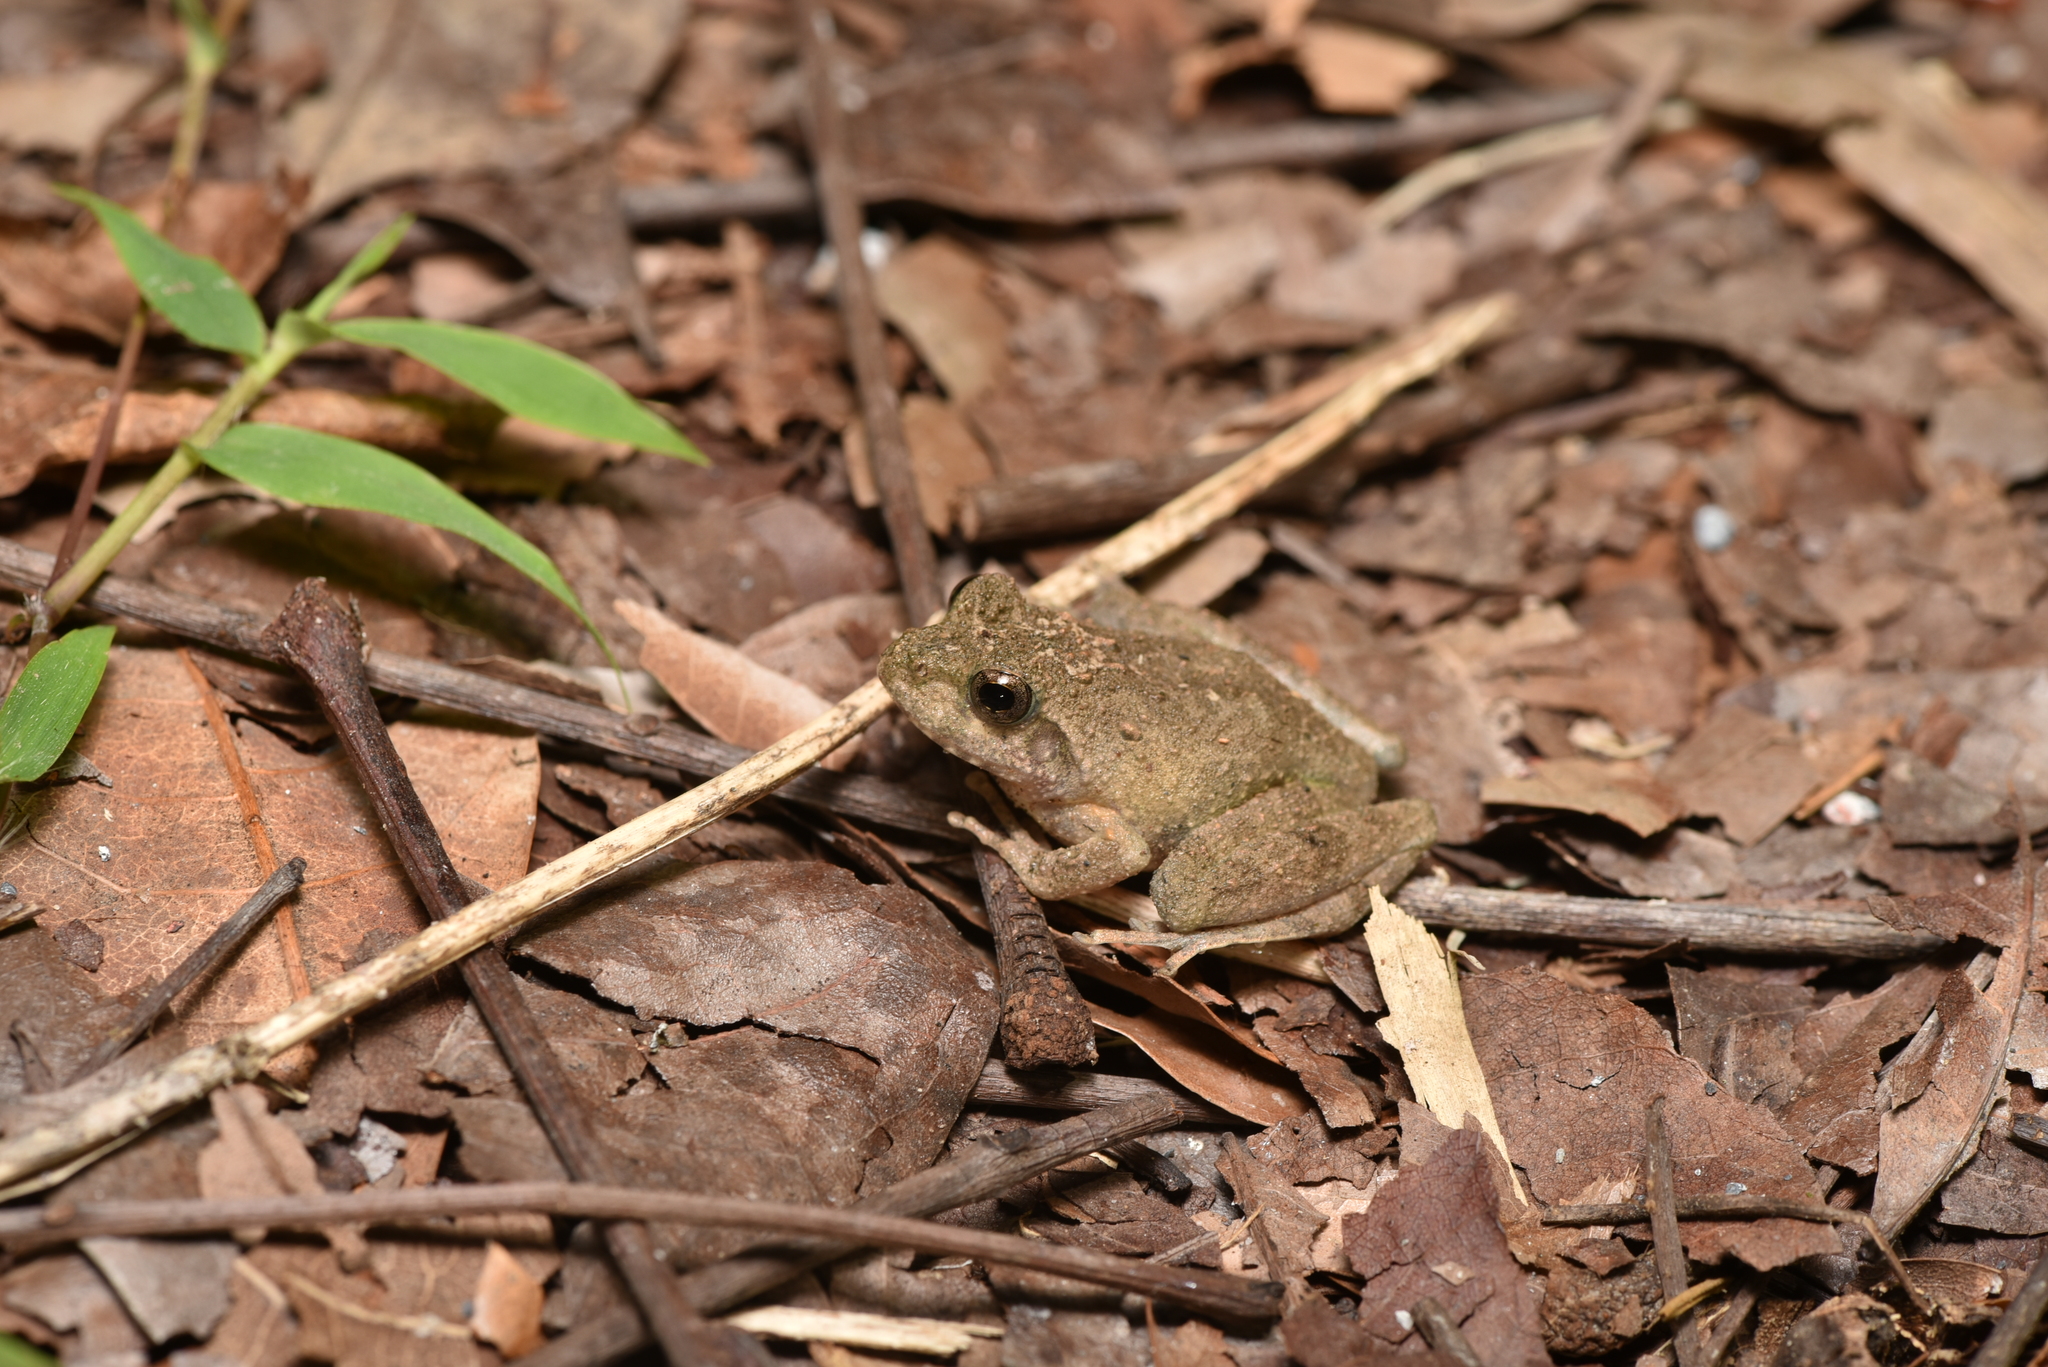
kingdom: Animalia
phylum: Chordata
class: Amphibia
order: Anura
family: Rhacophoridae
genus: Buergeria
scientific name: Buergeria choui
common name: Yaeyama kajika frog
